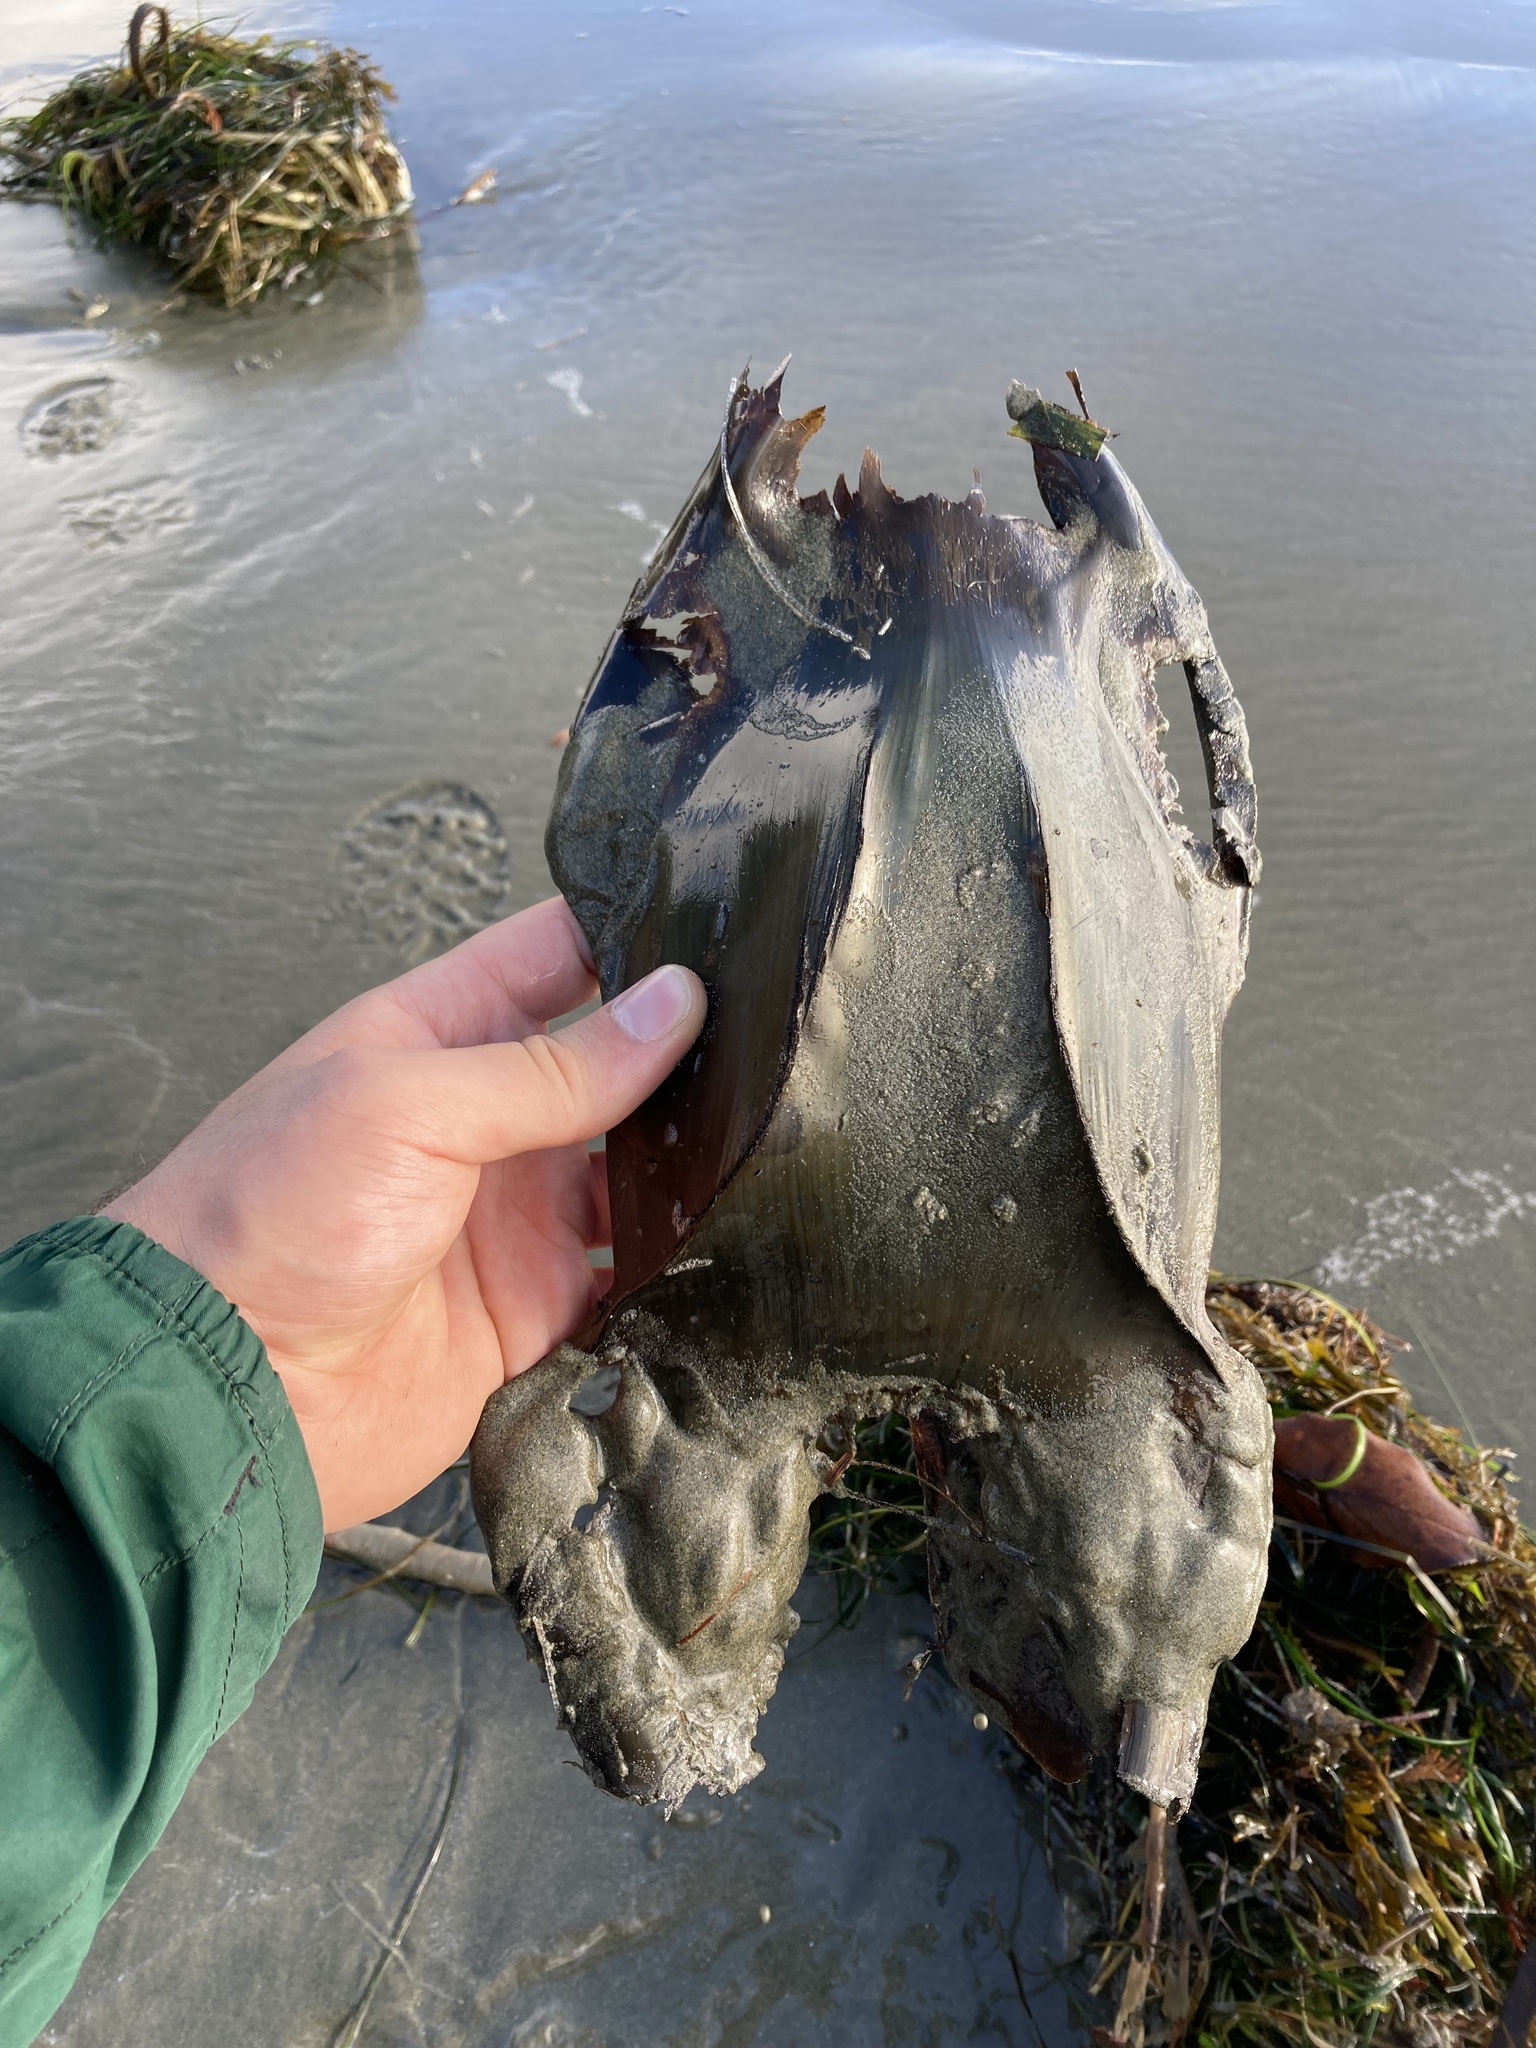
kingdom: Animalia
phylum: Chordata
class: Elasmobranchii
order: Rajiformes
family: Rajidae
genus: Beringraja
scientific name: Beringraja binoculata
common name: Big skate
